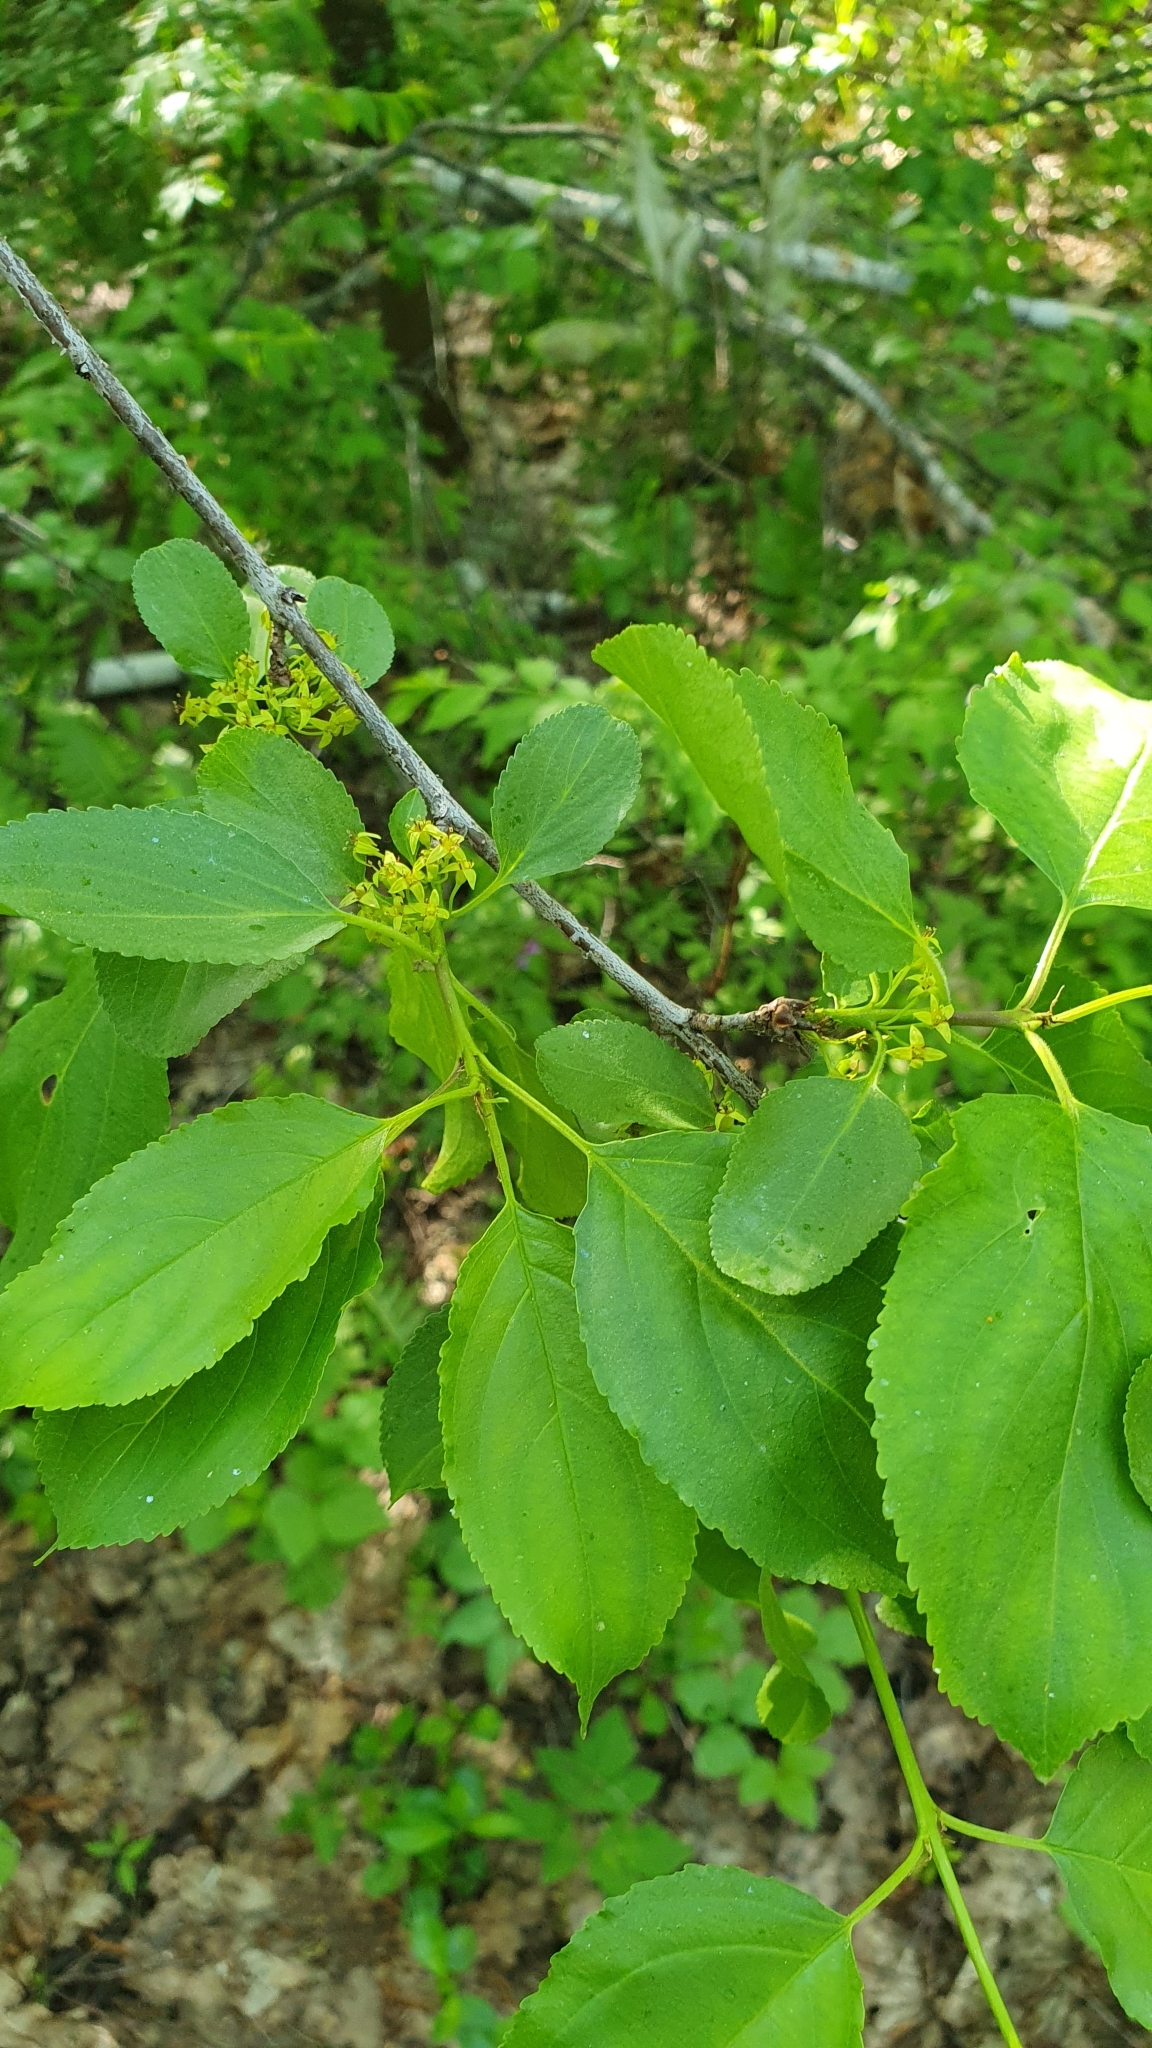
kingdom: Plantae
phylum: Tracheophyta
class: Magnoliopsida
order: Rosales
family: Rhamnaceae
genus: Rhamnus
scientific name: Rhamnus cathartica
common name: Common buckthorn
